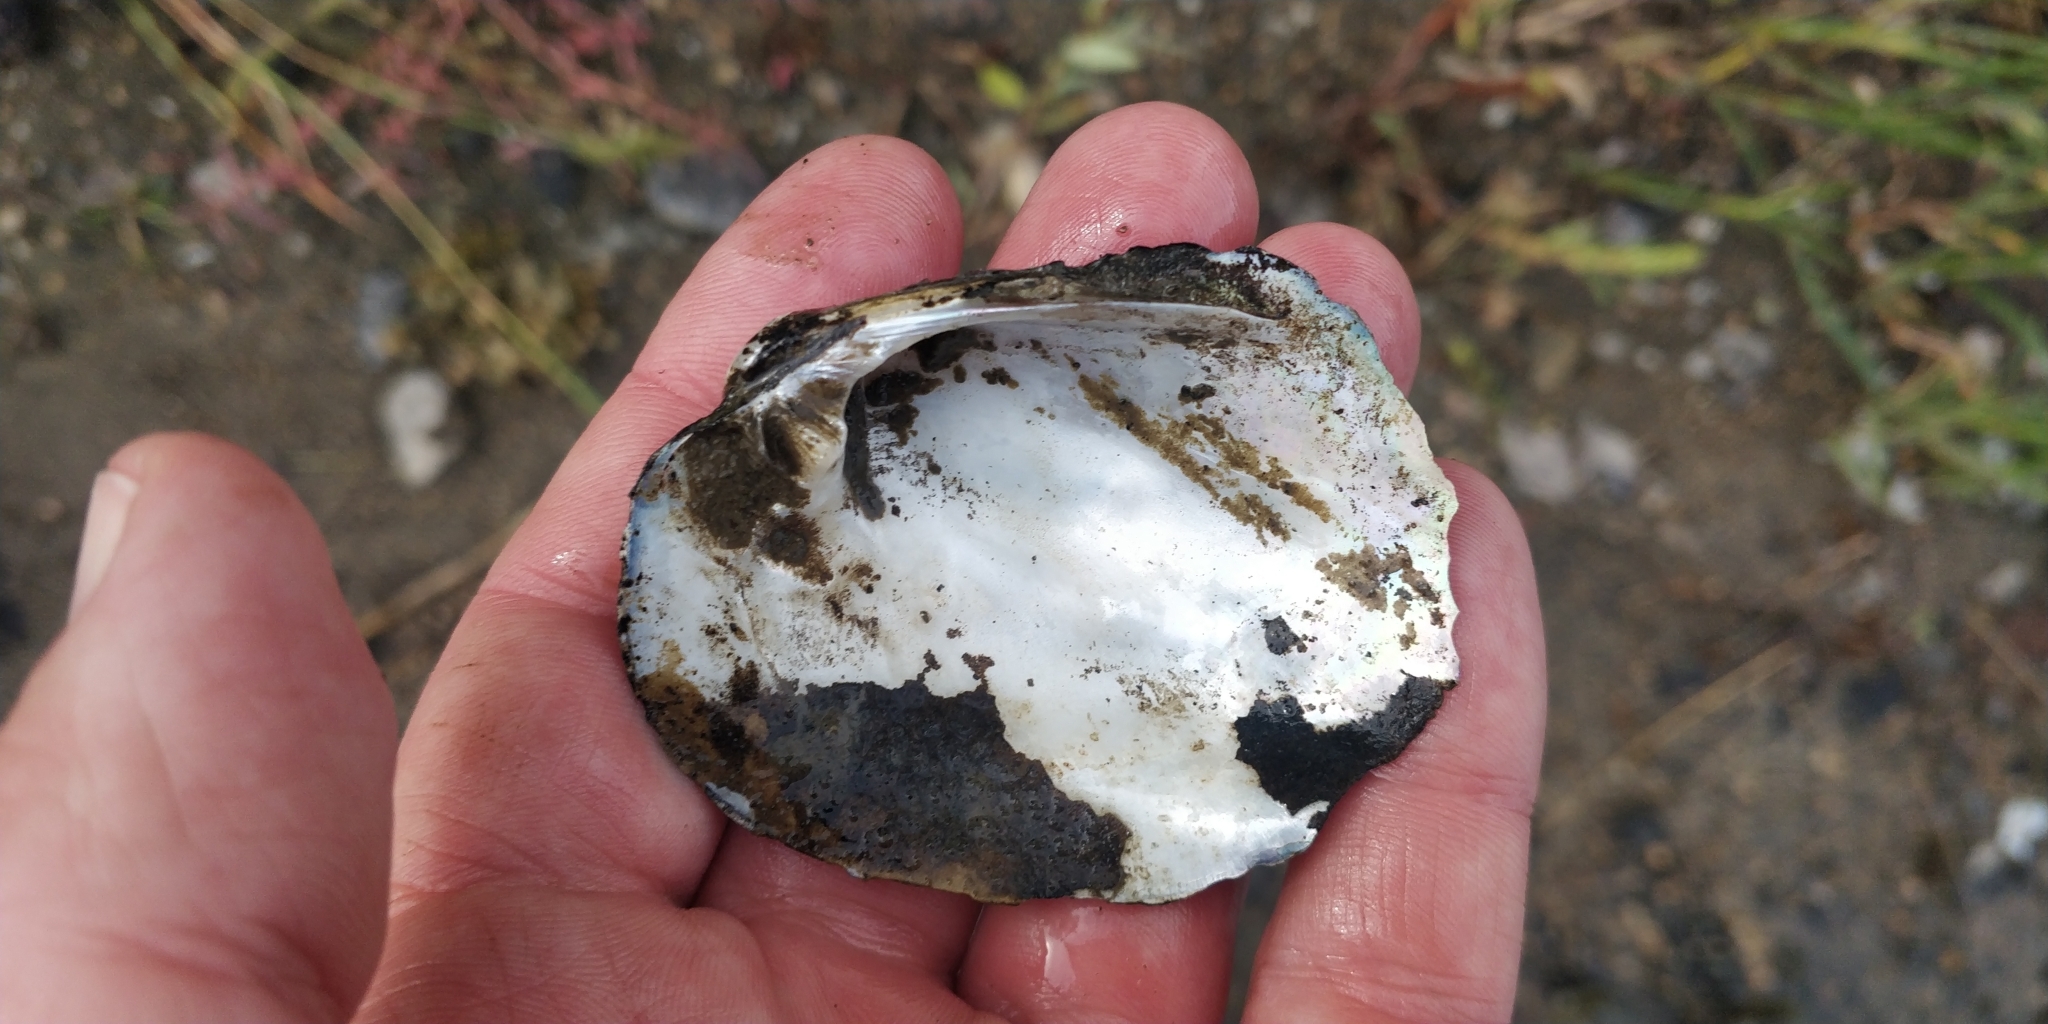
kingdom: Animalia
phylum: Mollusca
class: Bivalvia
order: Unionida
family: Unionidae
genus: Amblema
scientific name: Amblema plicata
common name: Threeridge
